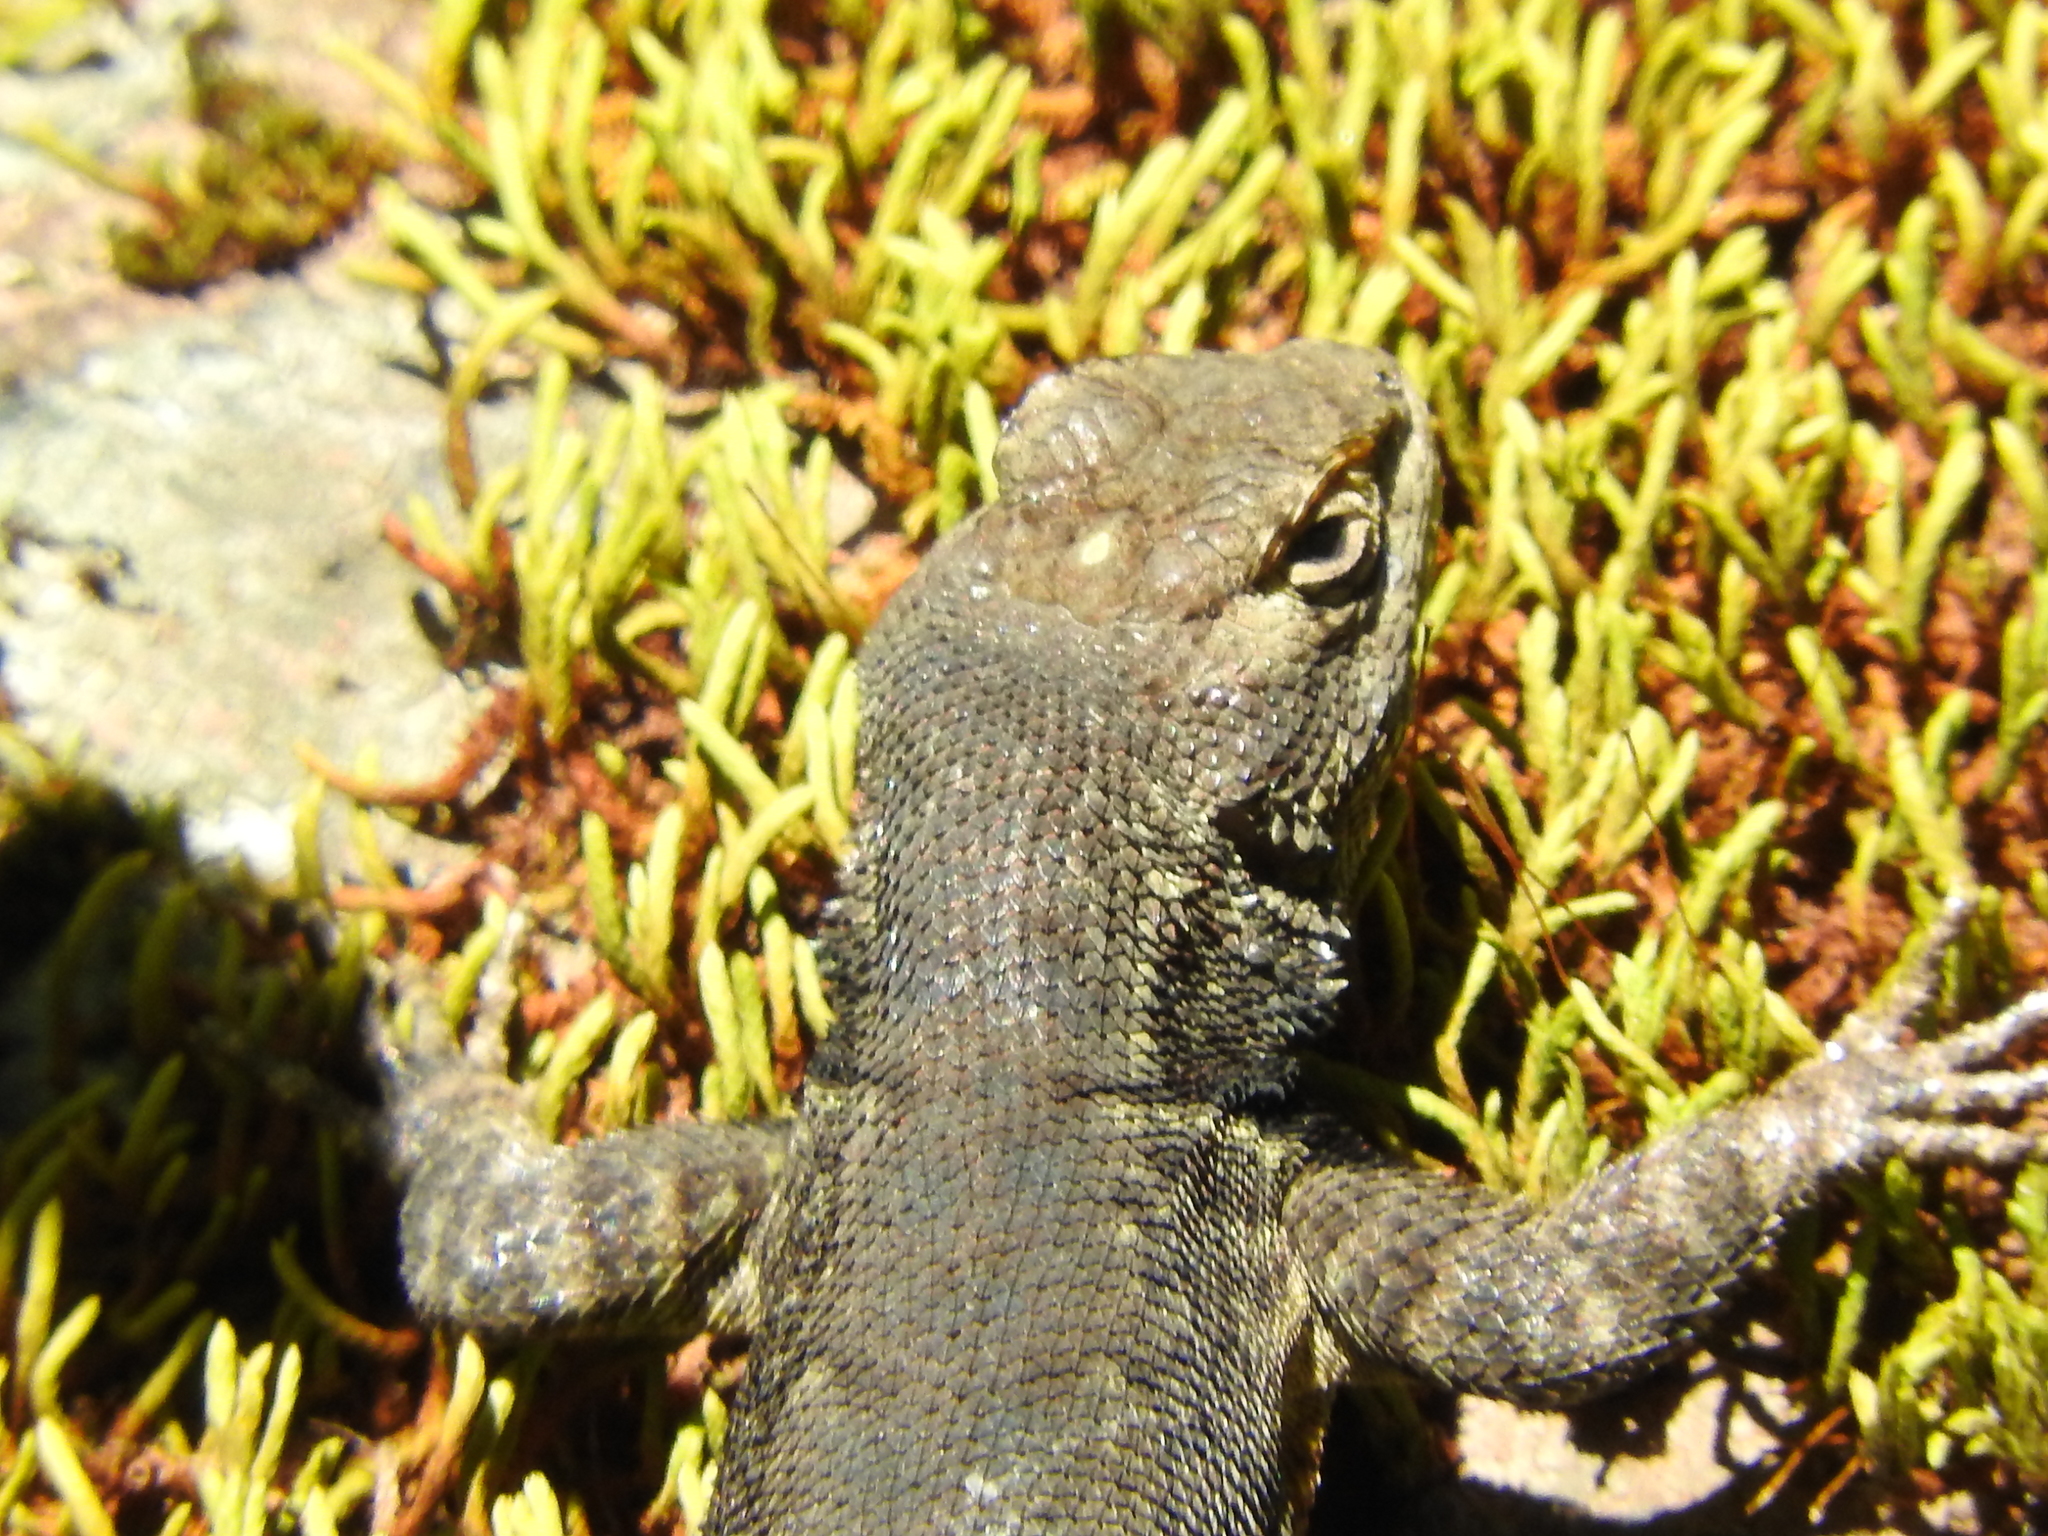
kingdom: Animalia
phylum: Chordata
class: Squamata
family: Phrynosomatidae
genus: Sceloporus
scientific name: Sceloporus grammicus
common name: Mesquite lizard
